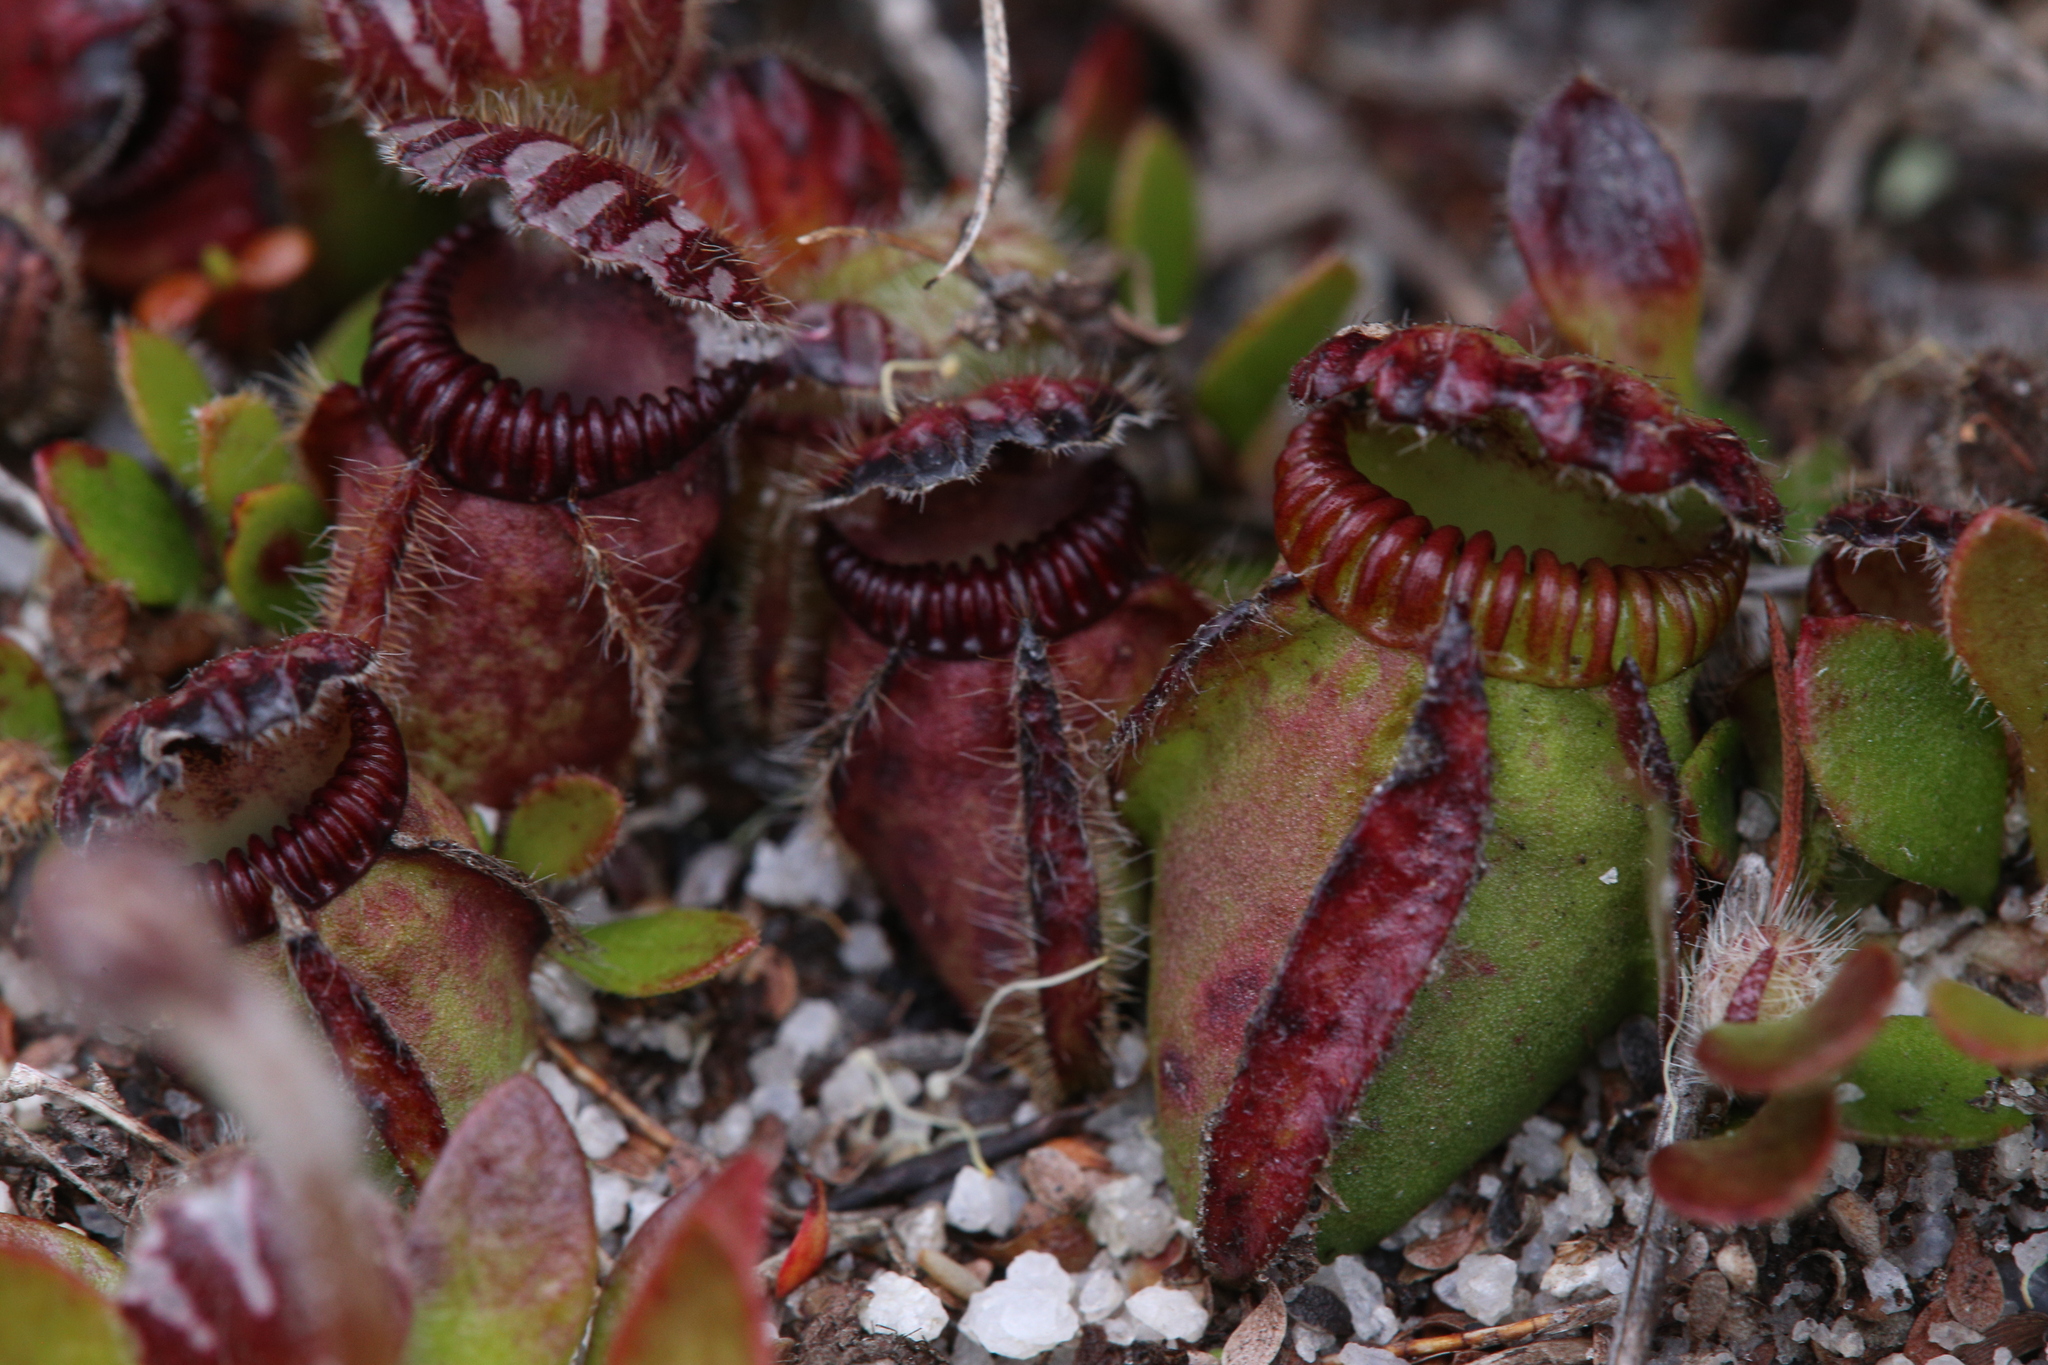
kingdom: Plantae
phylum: Tracheophyta
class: Magnoliopsida
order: Oxalidales
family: Cephalotaceae
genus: Cephalotus
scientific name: Cephalotus follicularis
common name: Australian pitcher plant
